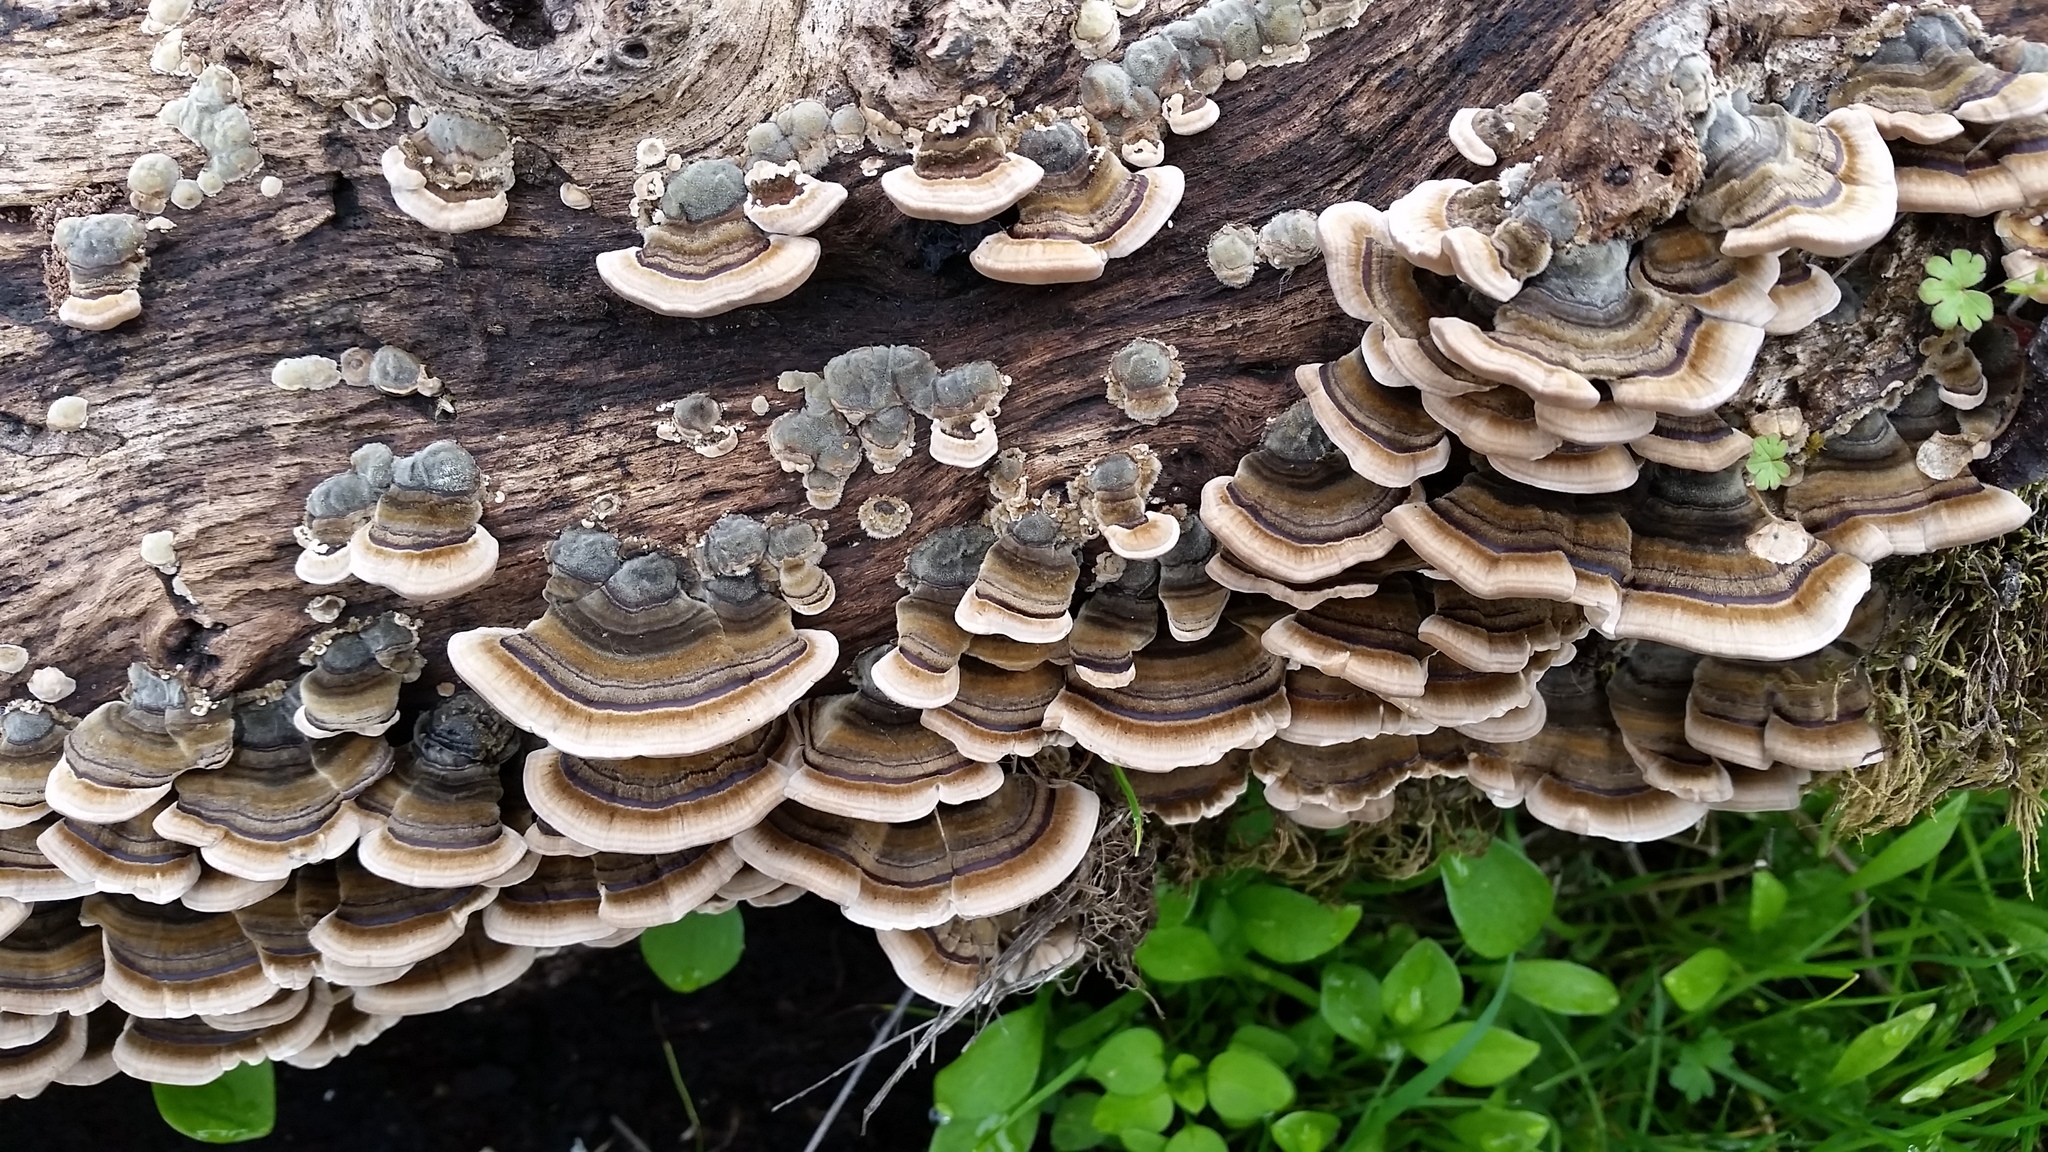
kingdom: Fungi
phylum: Basidiomycota
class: Agaricomycetes
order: Polyporales
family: Polyporaceae
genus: Trametes
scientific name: Trametes versicolor
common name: Turkeytail
